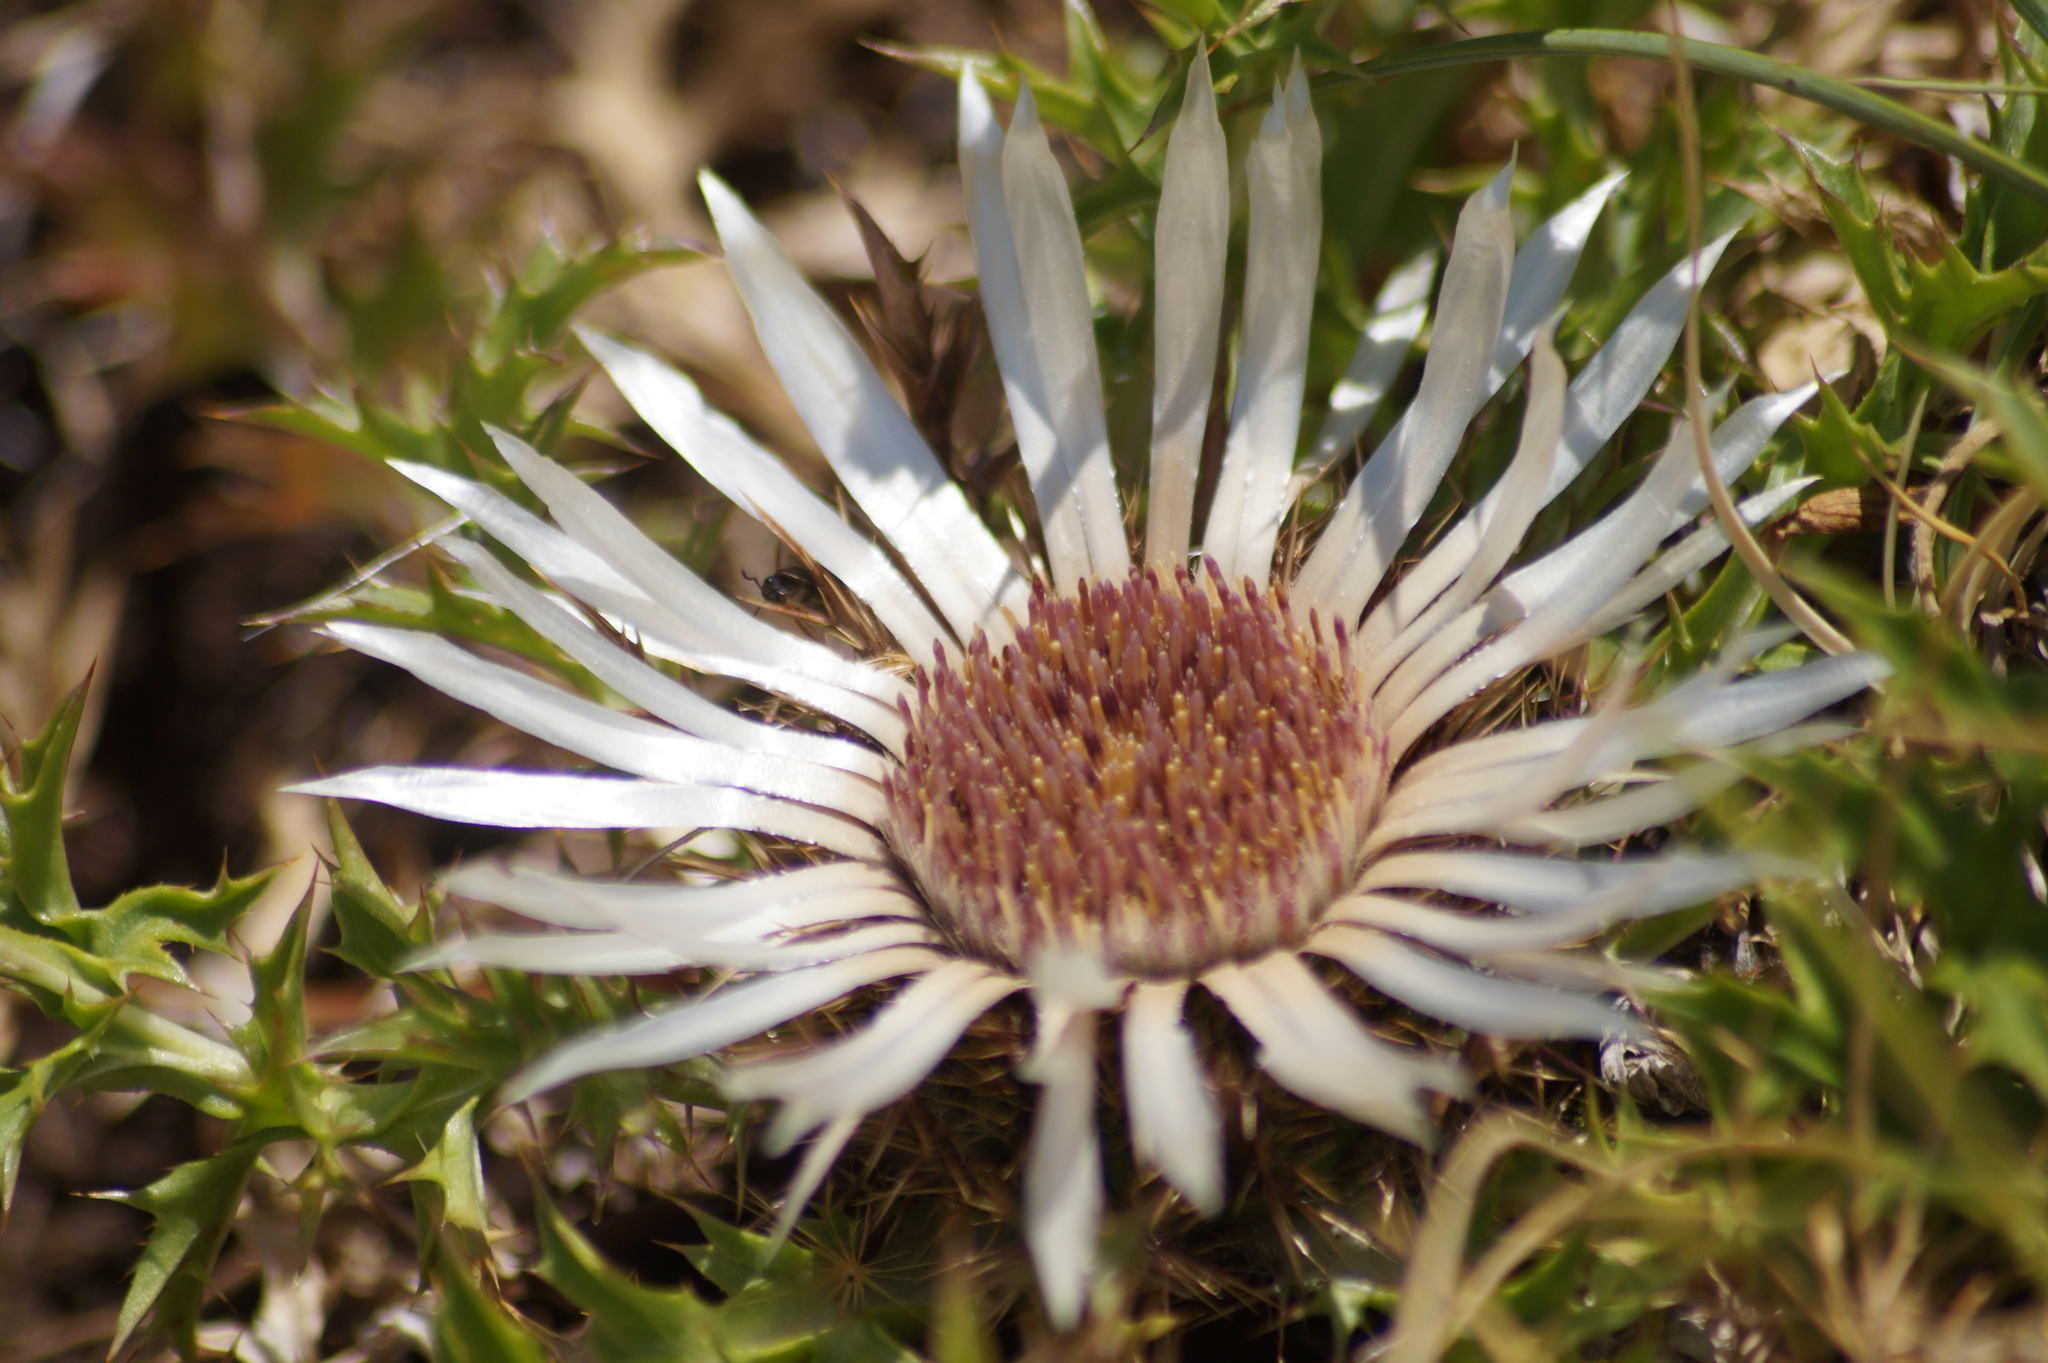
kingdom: Plantae
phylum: Tracheophyta
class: Magnoliopsida
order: Asterales
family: Asteraceae
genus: Carlina
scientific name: Carlina acaulis
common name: Stemless carline thistle
